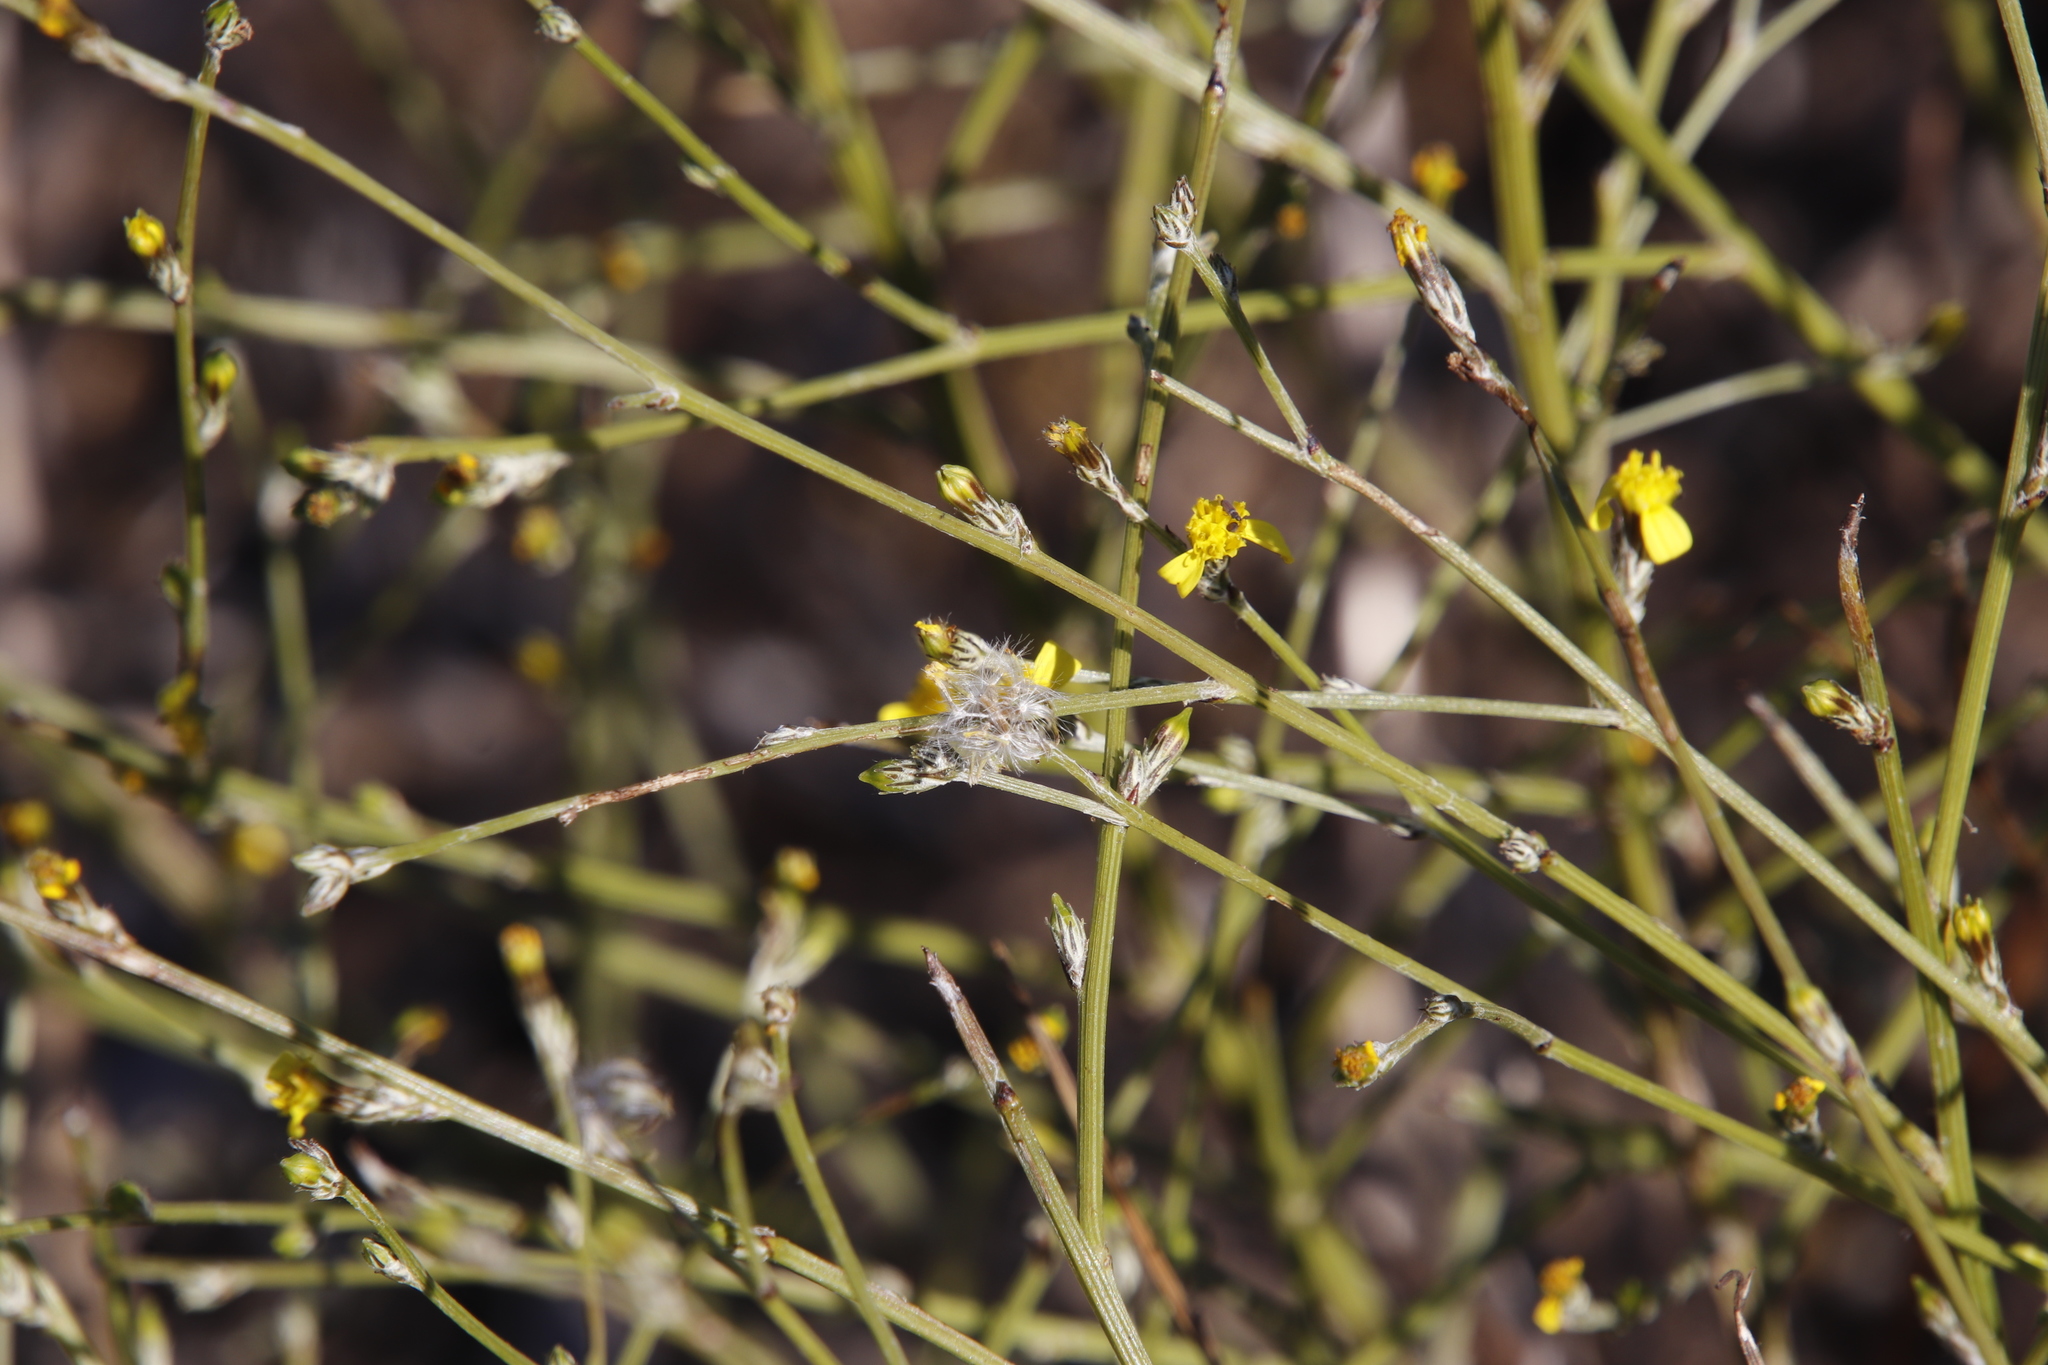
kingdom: Plantae
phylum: Tracheophyta
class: Magnoliopsida
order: Asterales
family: Asteraceae
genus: Senecio
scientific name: Senecio pubigerus
